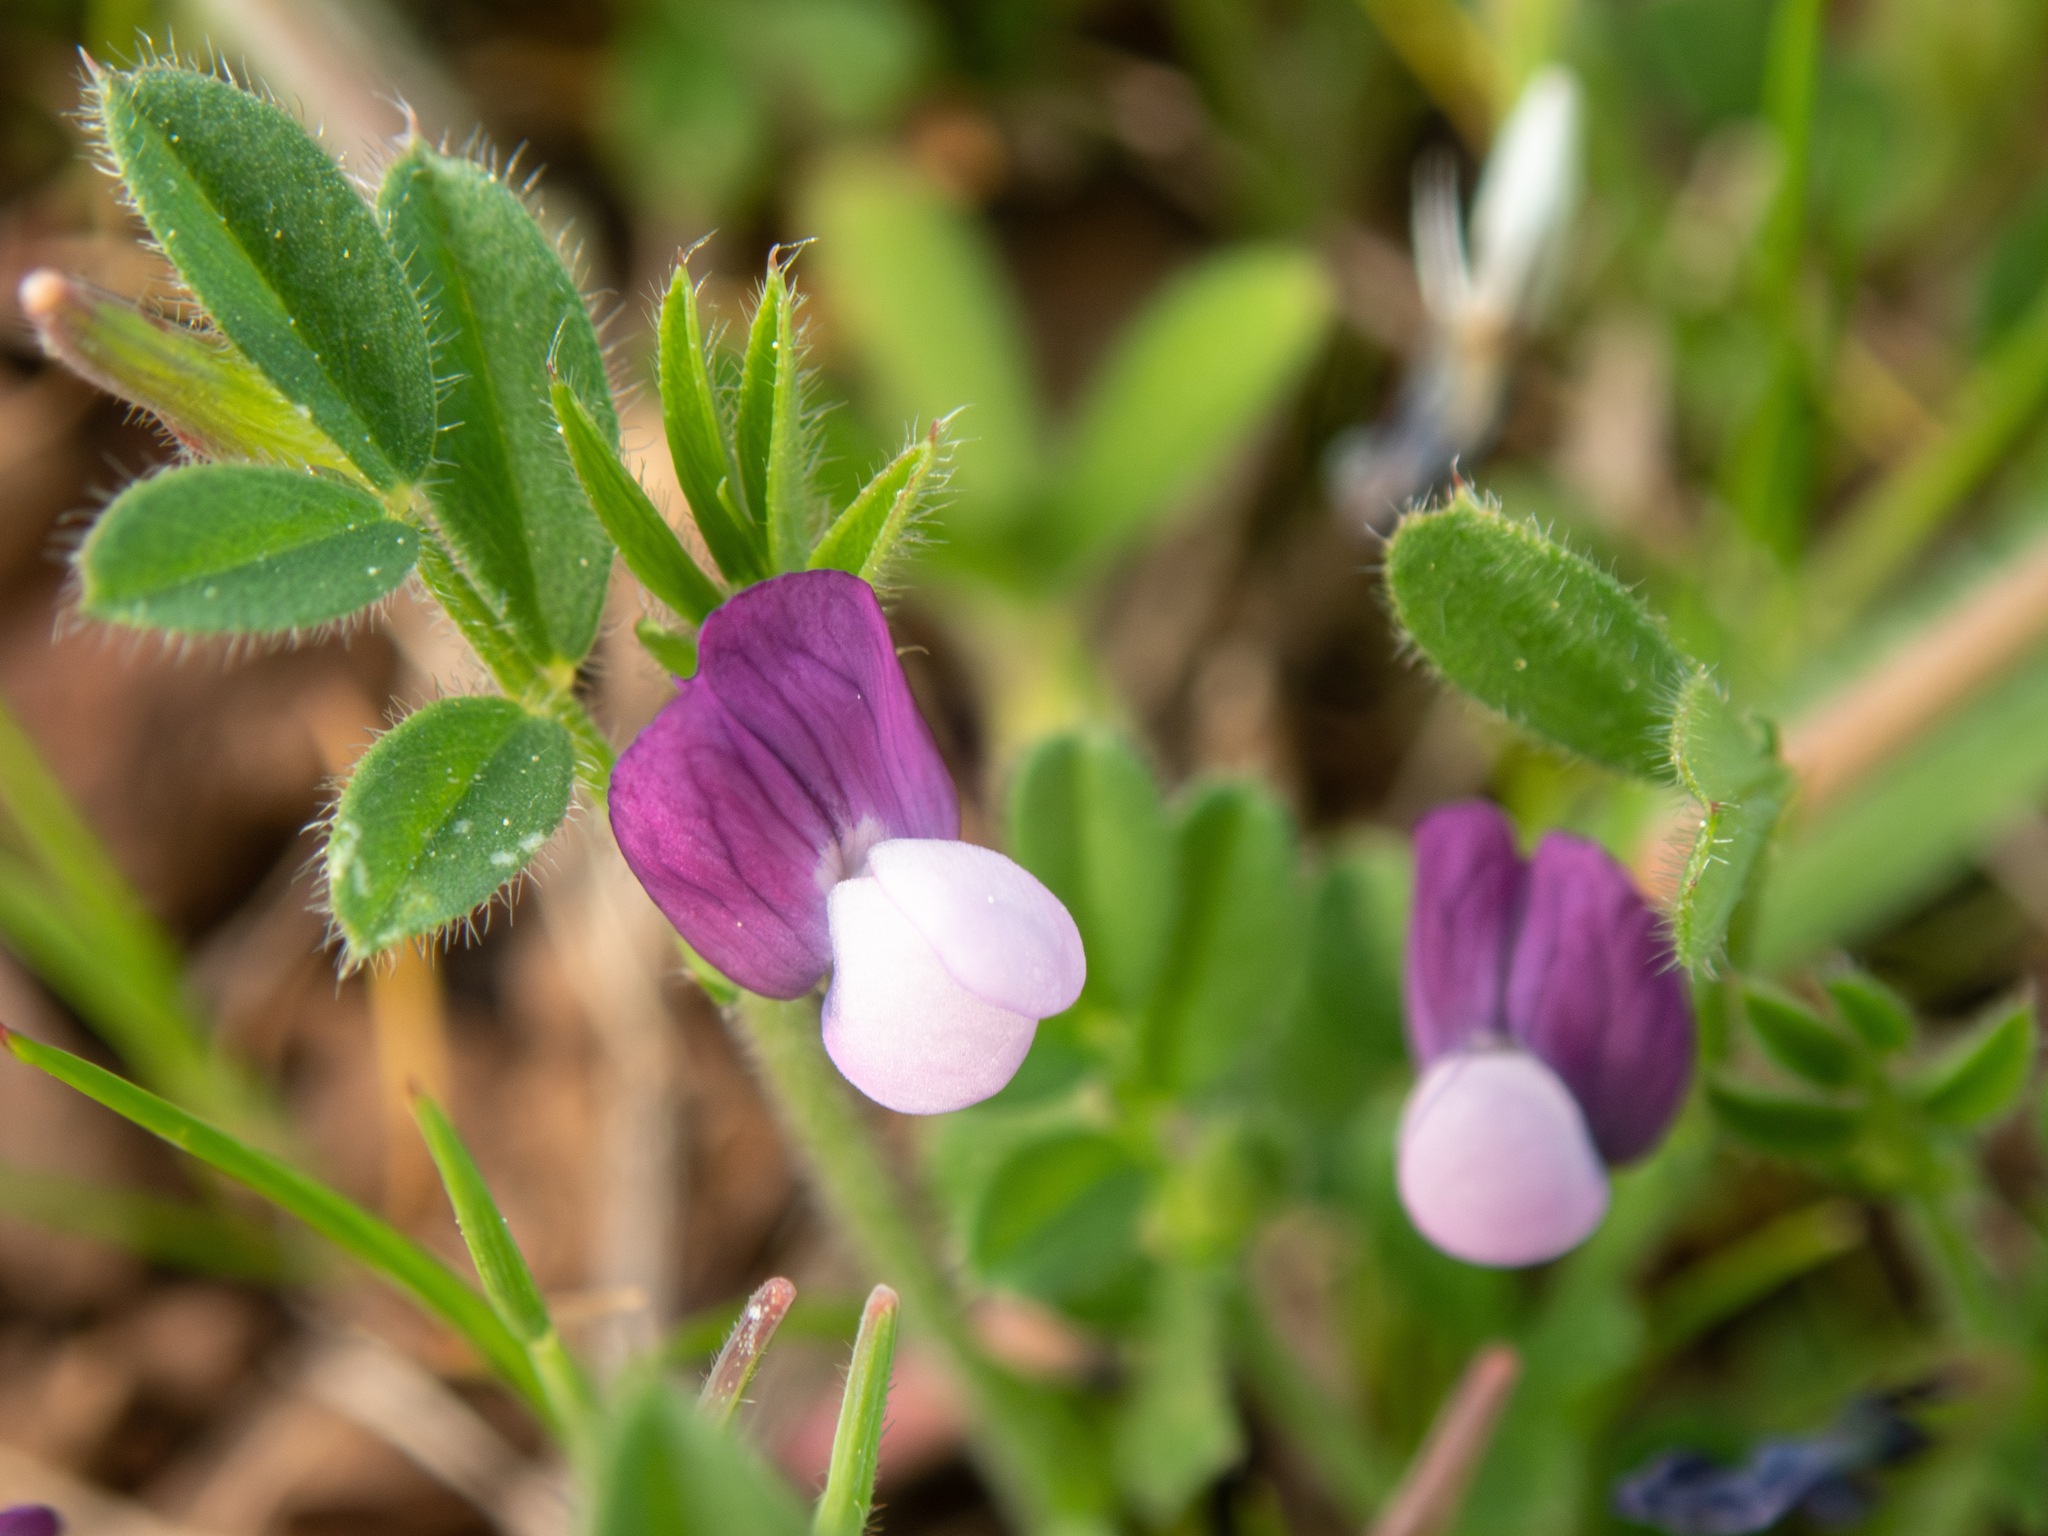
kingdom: Plantae
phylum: Tracheophyta
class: Magnoliopsida
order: Fabales
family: Fabaceae
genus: Vicia
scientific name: Vicia lathyroides
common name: Spring vetch
